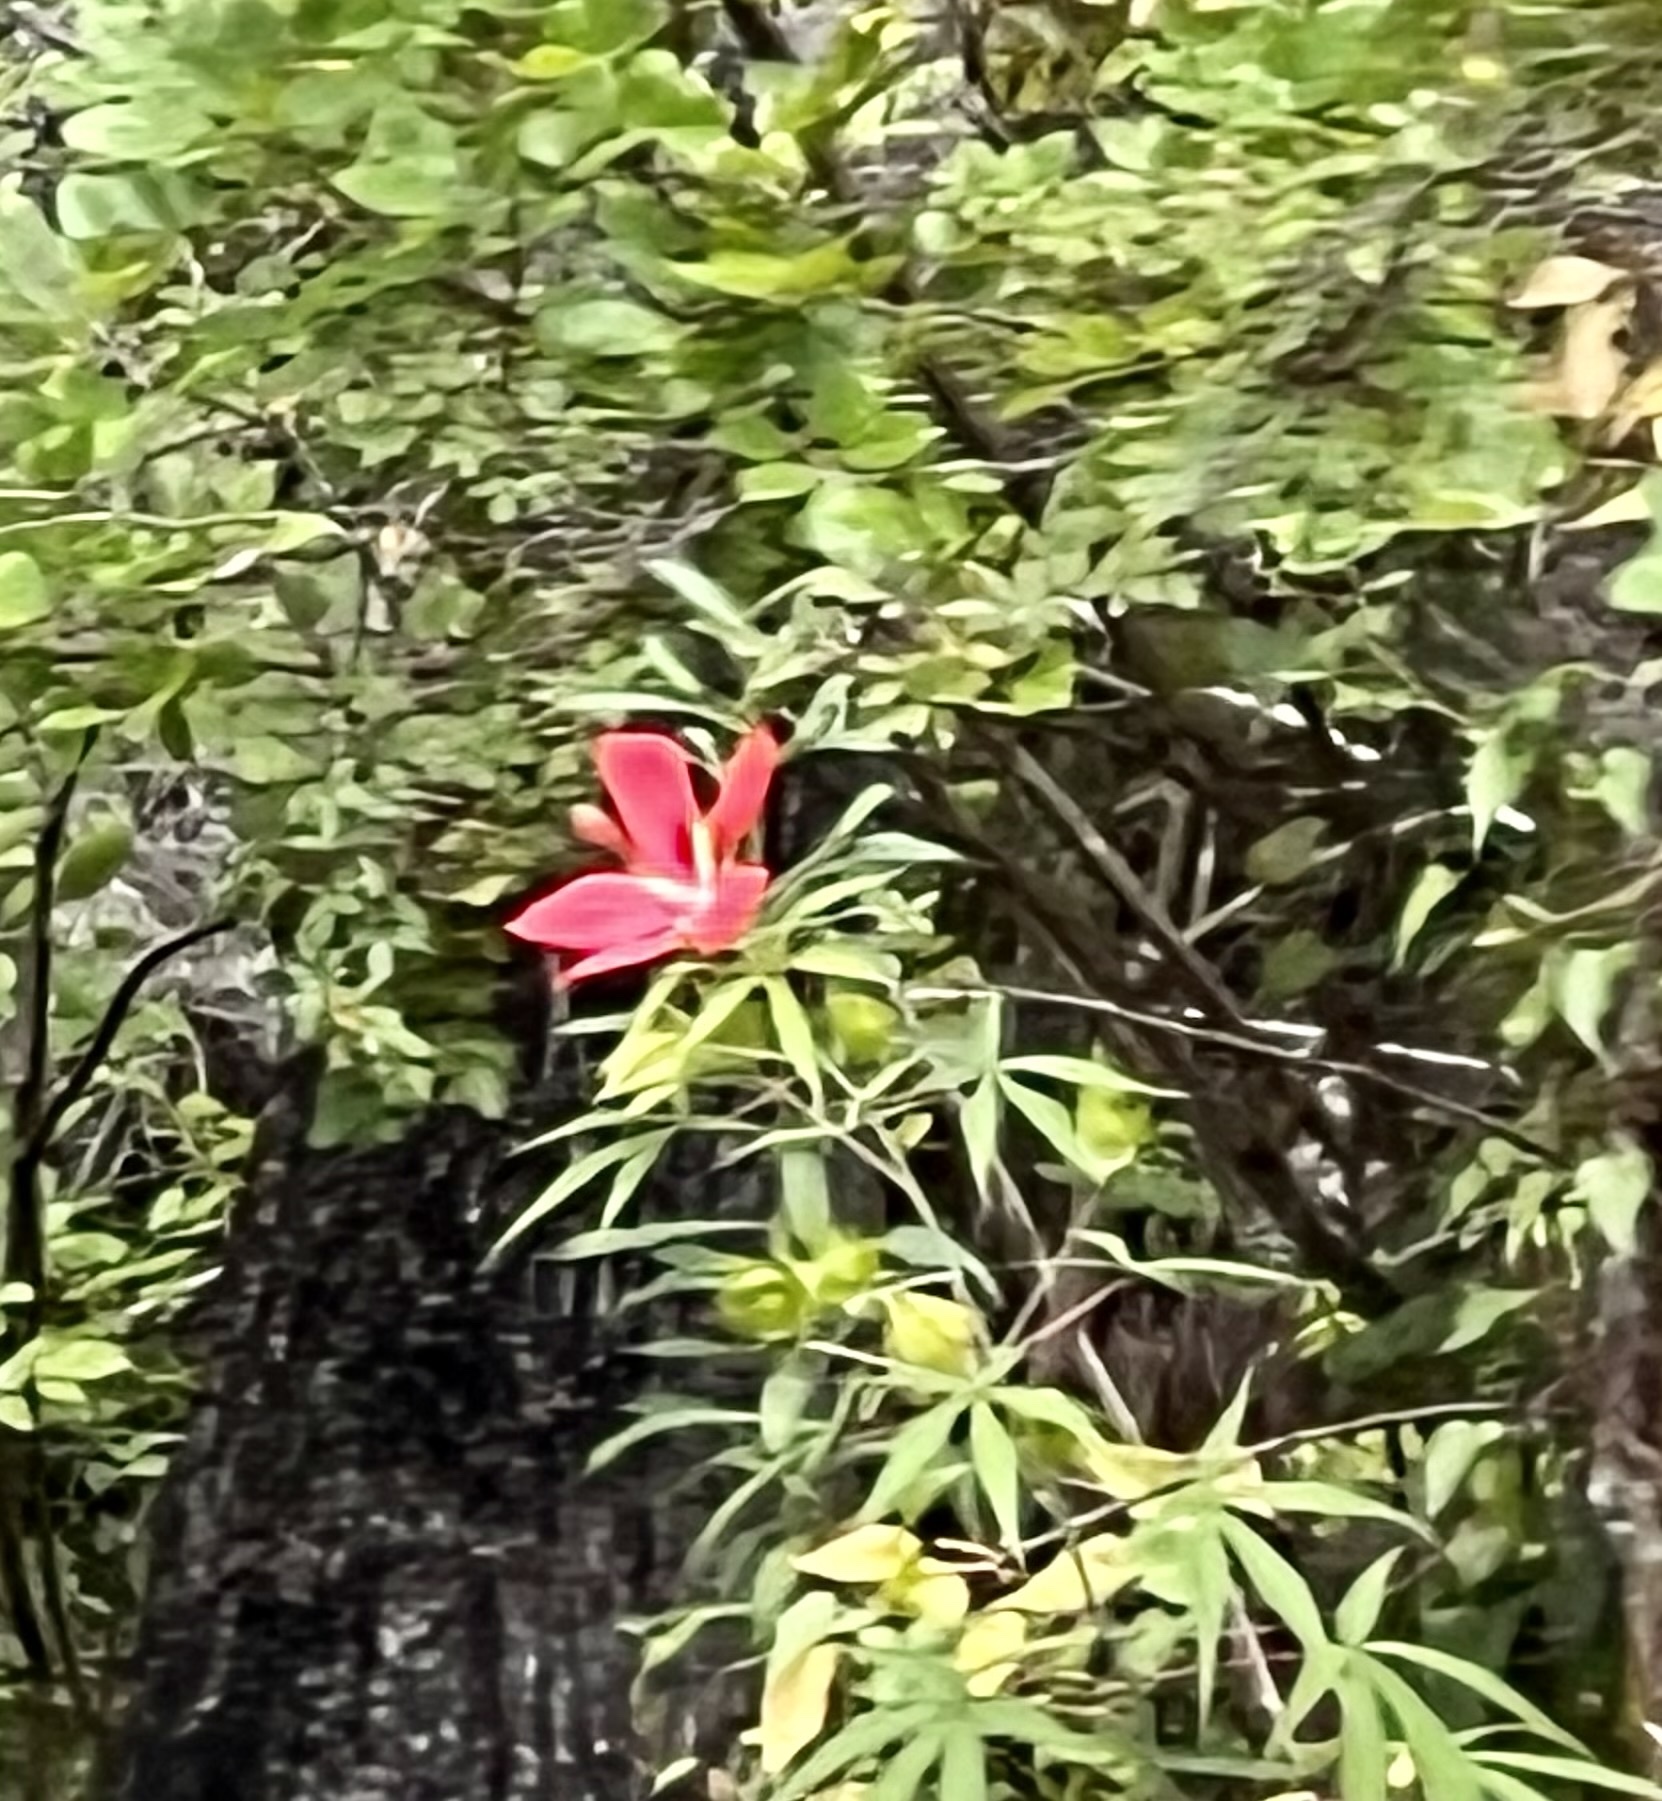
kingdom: Plantae
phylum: Tracheophyta
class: Magnoliopsida
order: Malvales
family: Malvaceae
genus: Hibiscus
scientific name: Hibiscus coccineus
